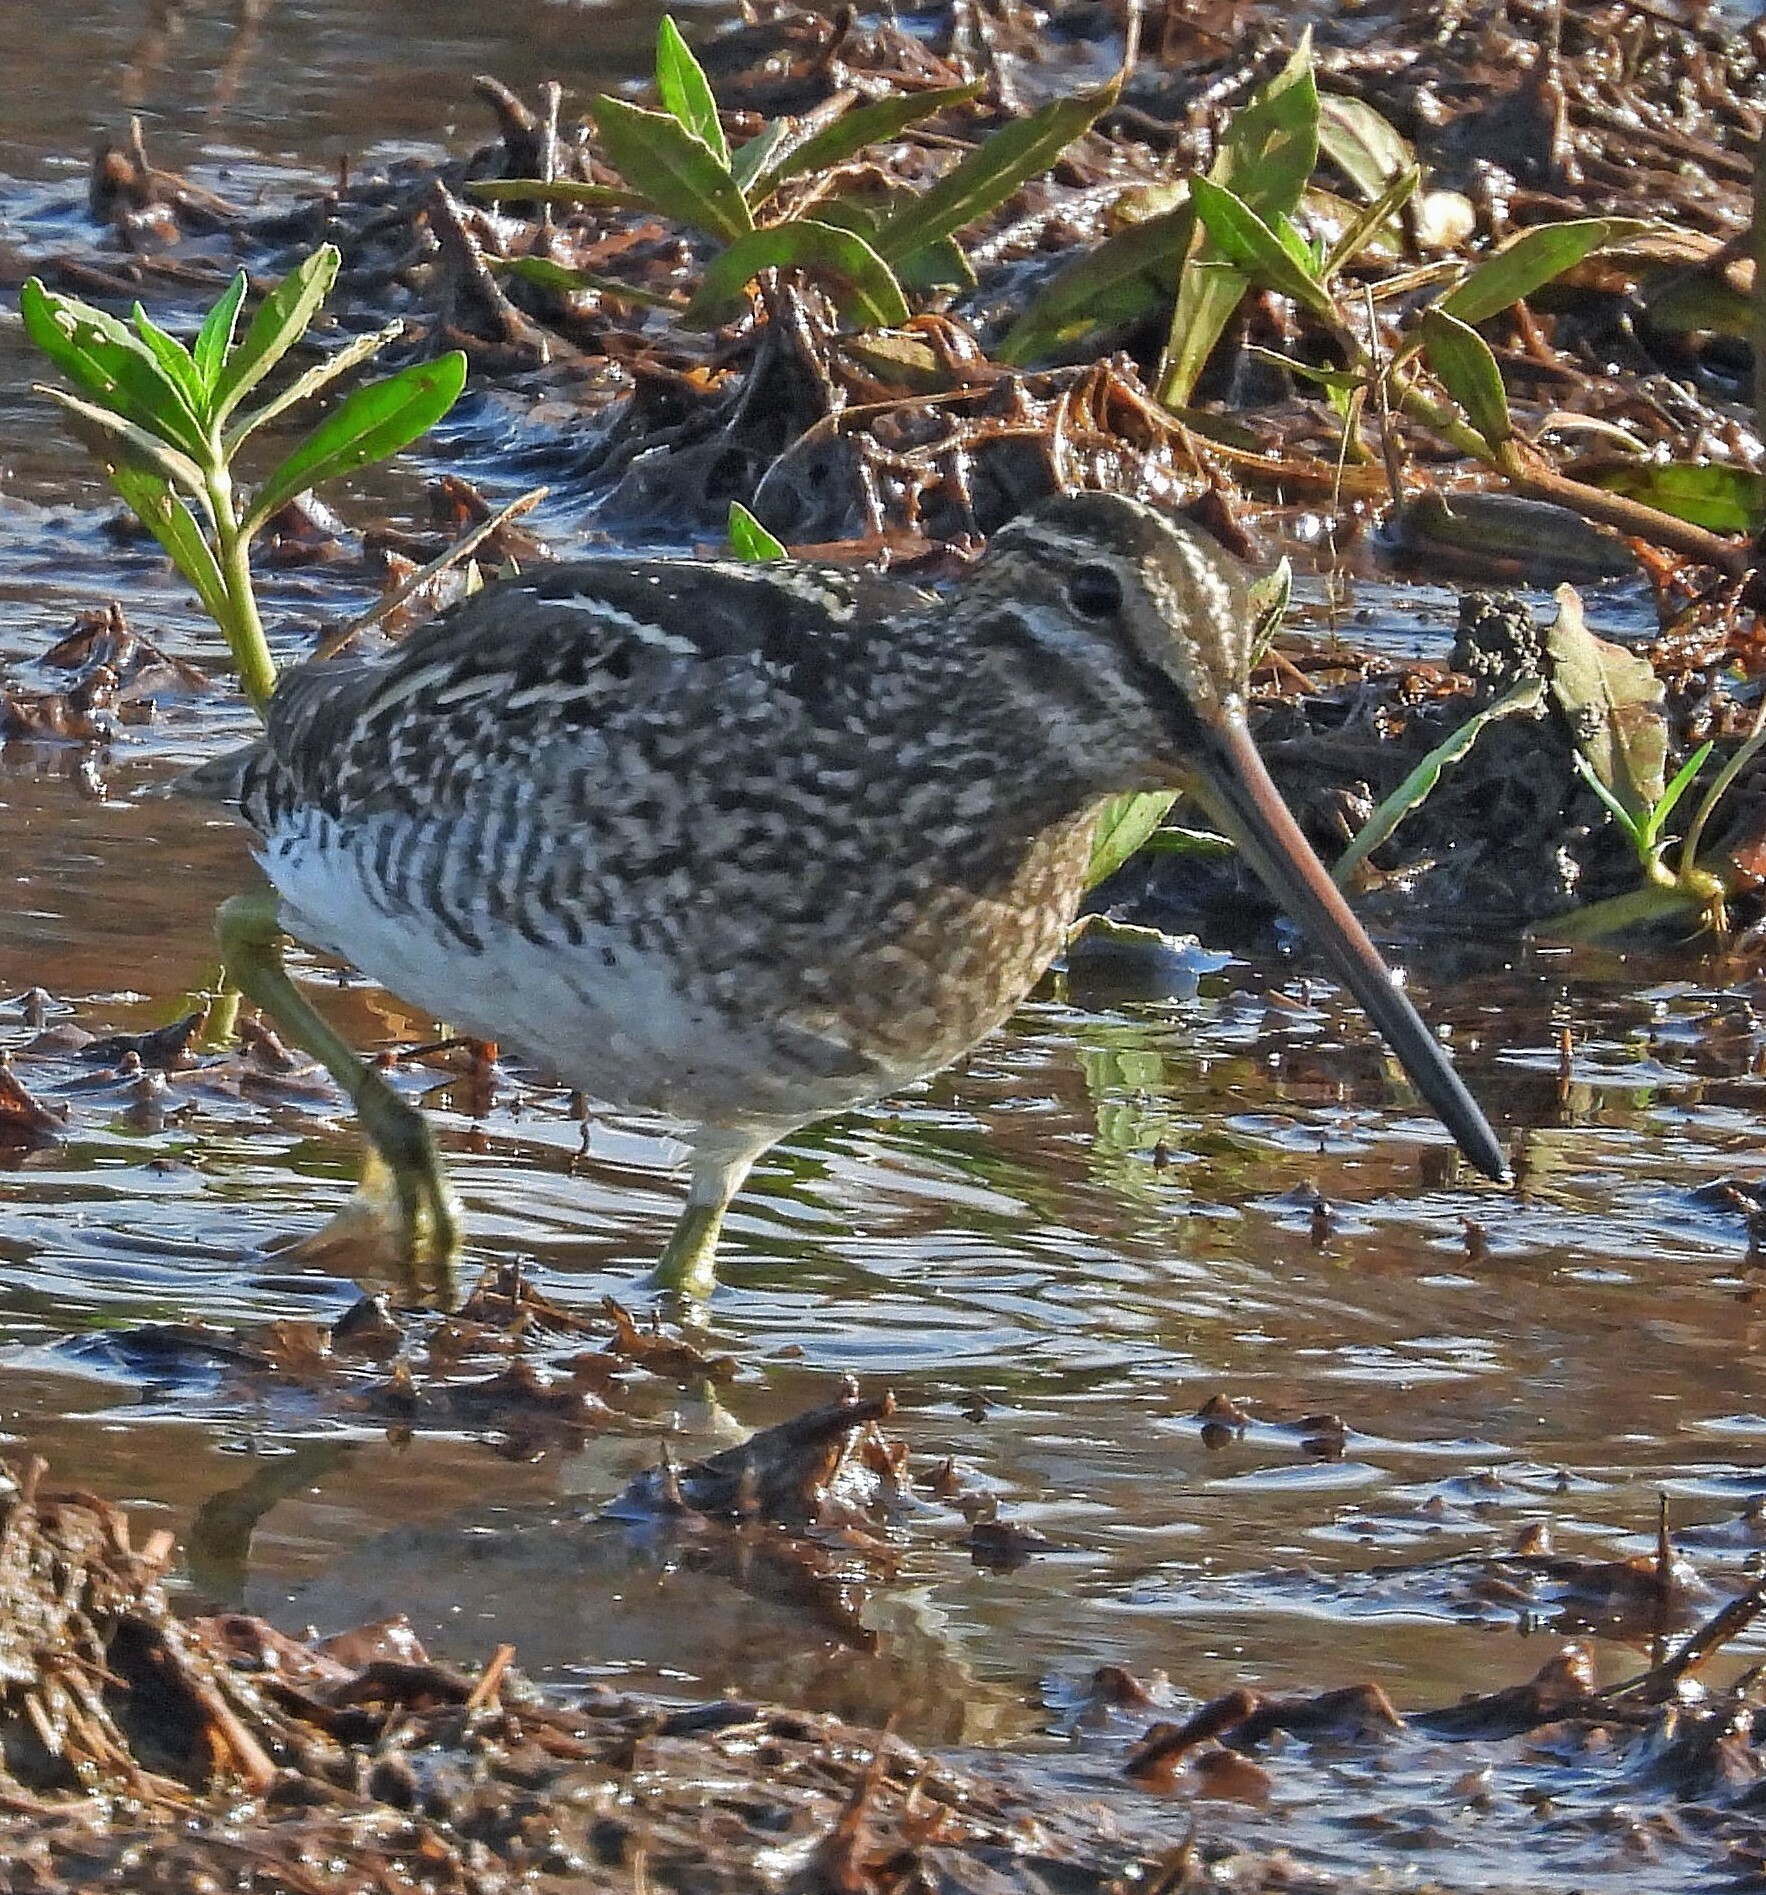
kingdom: Animalia
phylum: Chordata
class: Aves
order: Charadriiformes
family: Scolopacidae
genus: Gallinago
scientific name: Gallinago paraguaiae
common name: South american snipe
